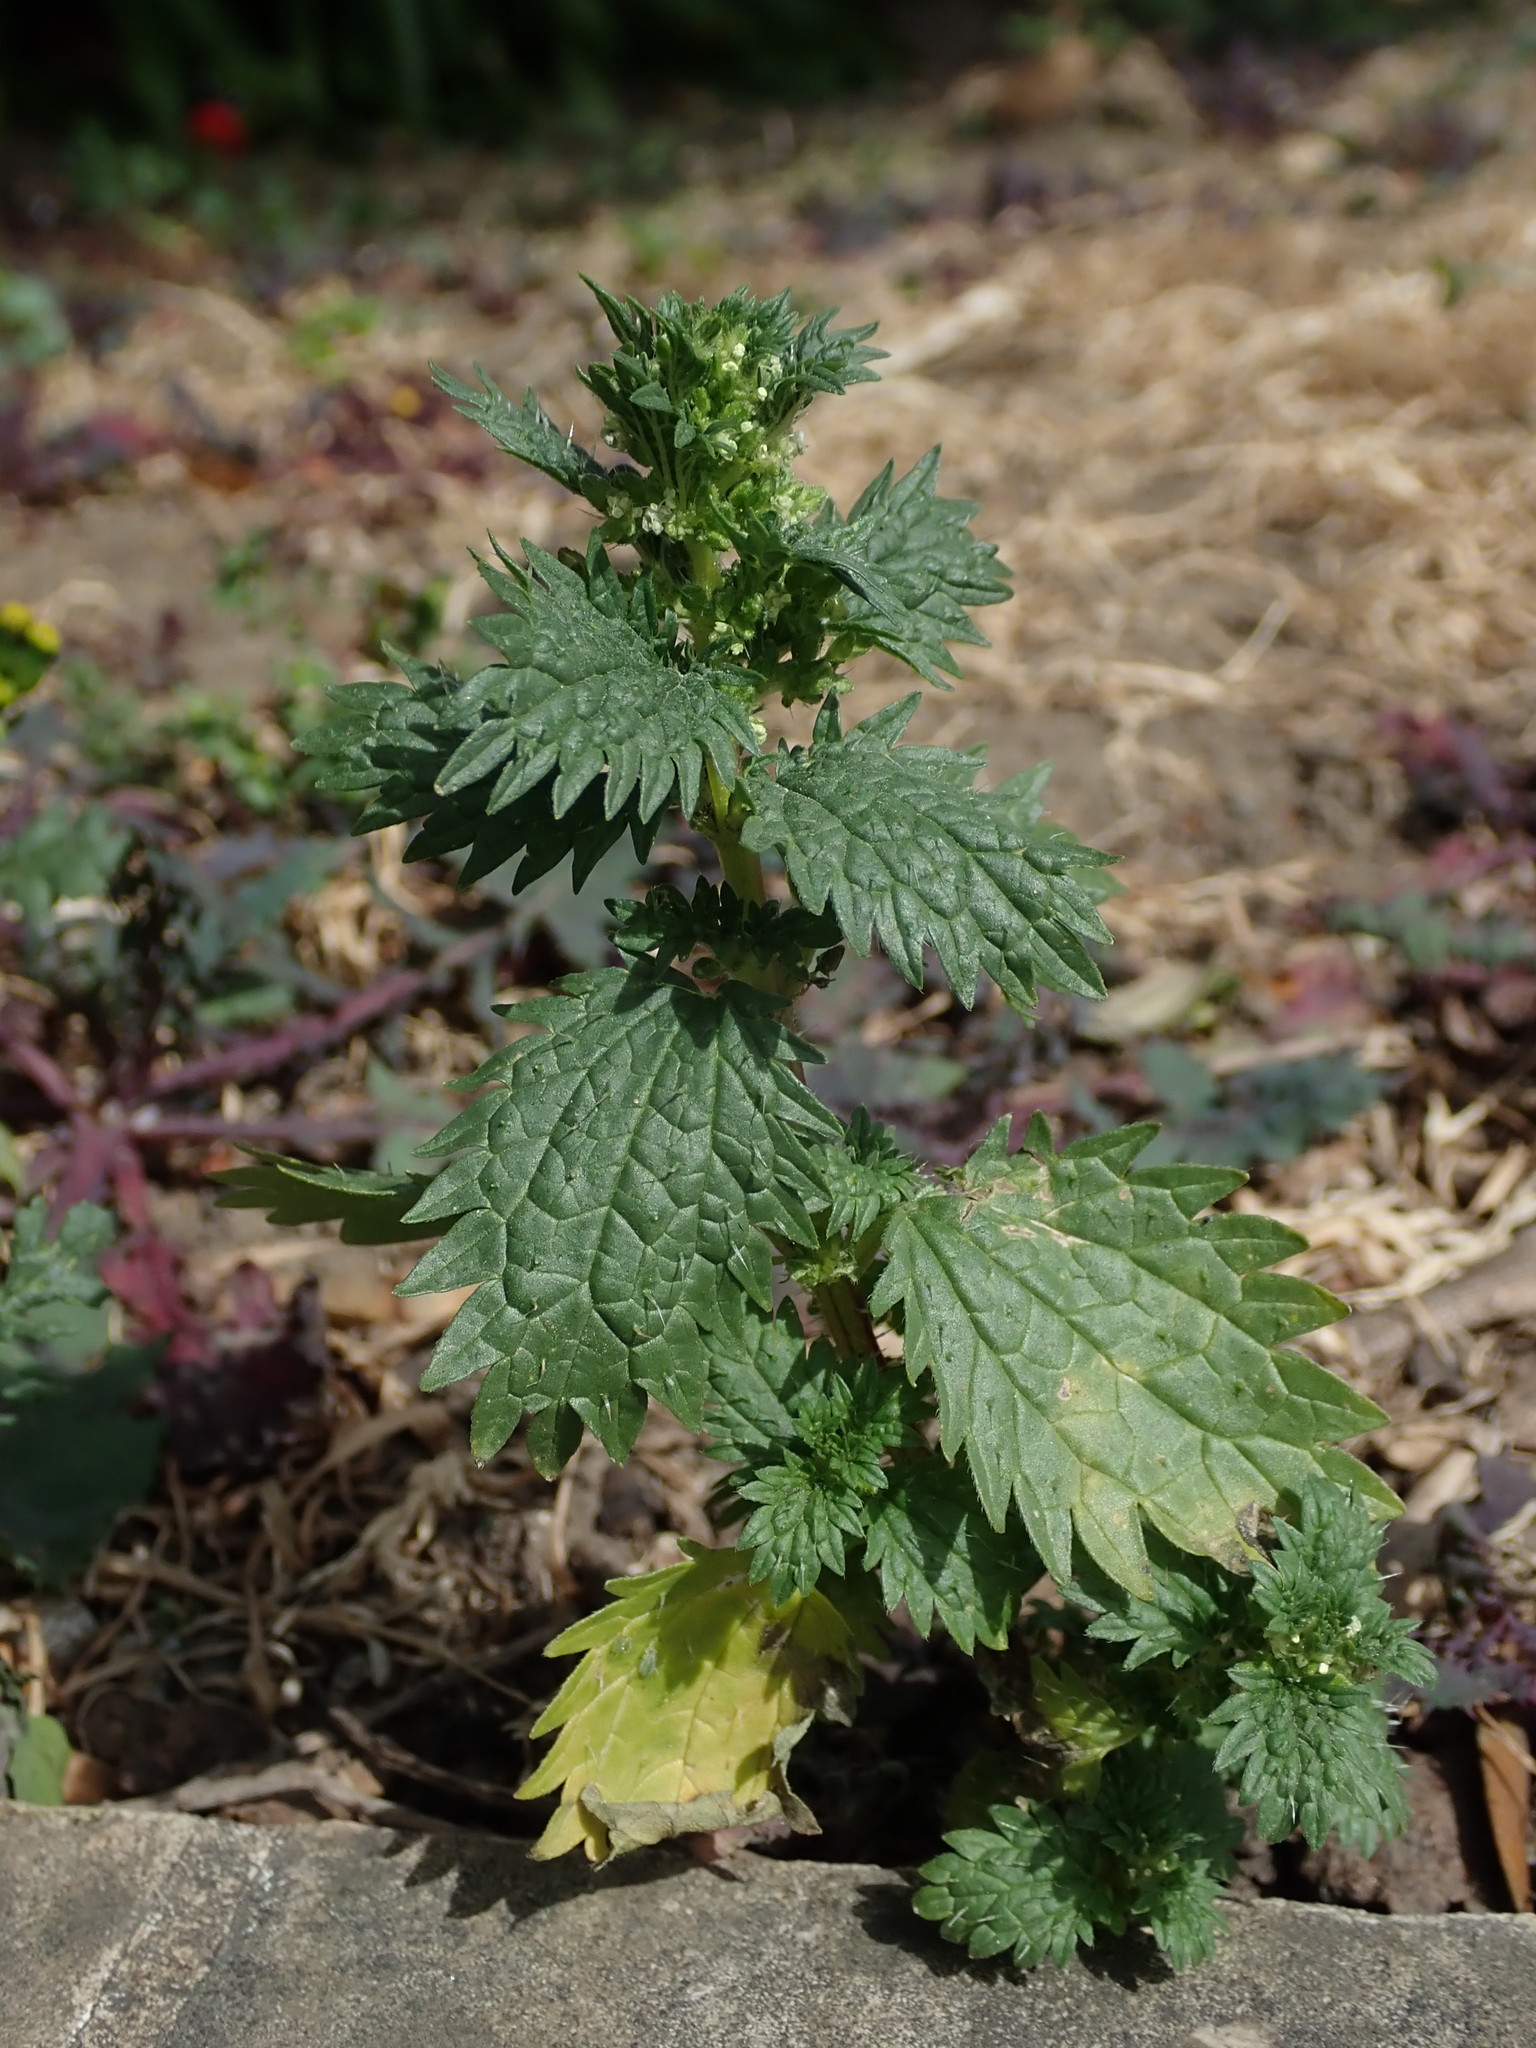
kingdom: Plantae
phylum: Tracheophyta
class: Magnoliopsida
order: Rosales
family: Urticaceae
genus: Urtica
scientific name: Urtica urens
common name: Dwarf nettle
